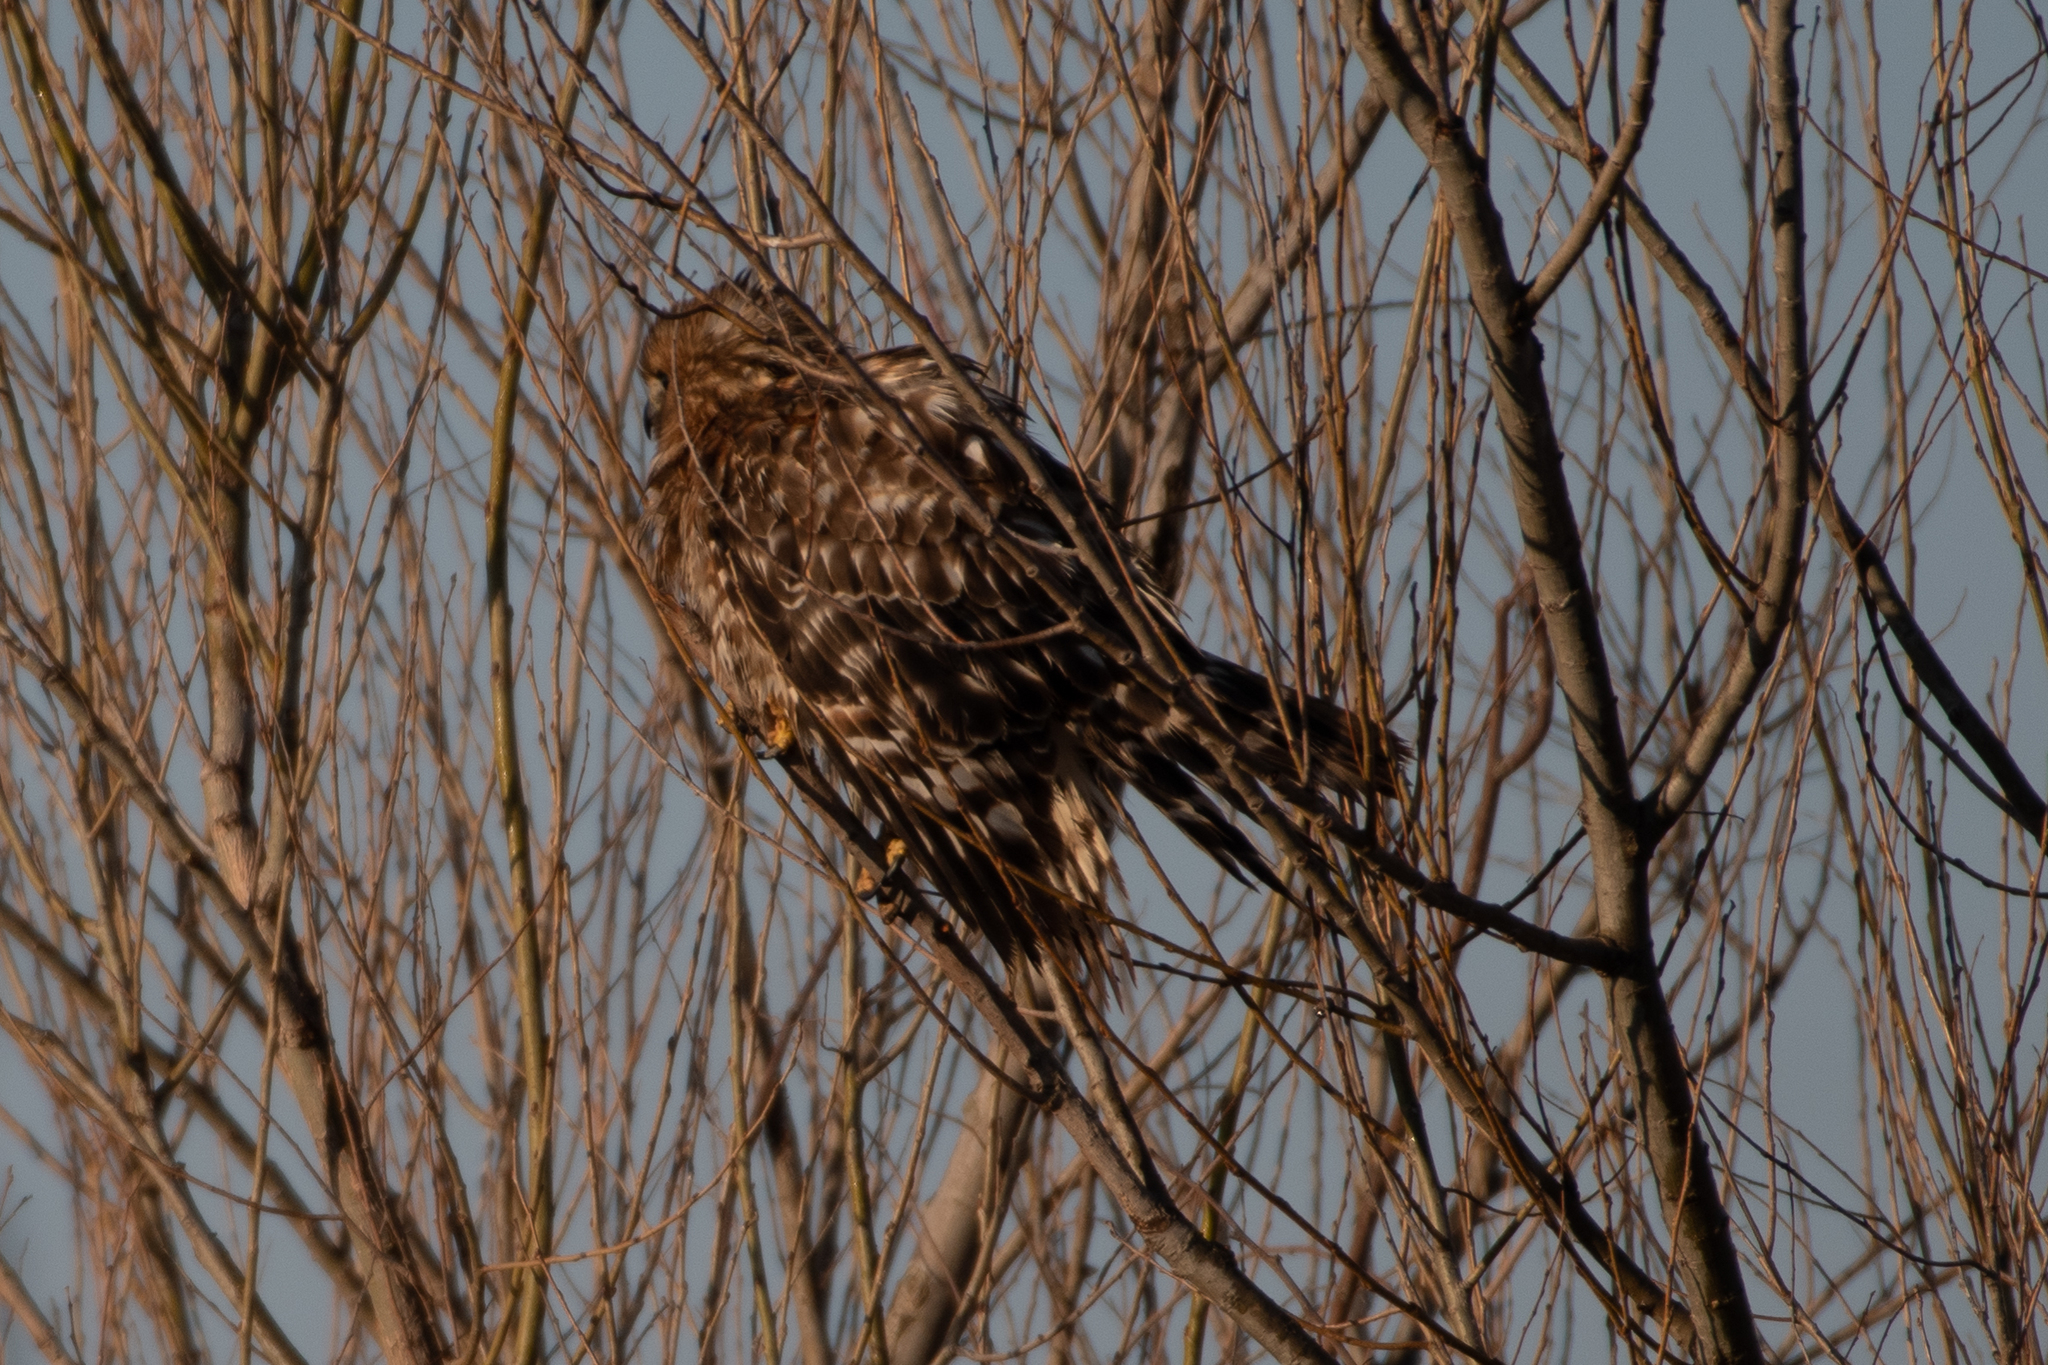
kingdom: Animalia
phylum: Chordata
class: Aves
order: Accipitriformes
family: Accipitridae
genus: Buteo
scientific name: Buteo lineatus
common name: Red-shouldered hawk
